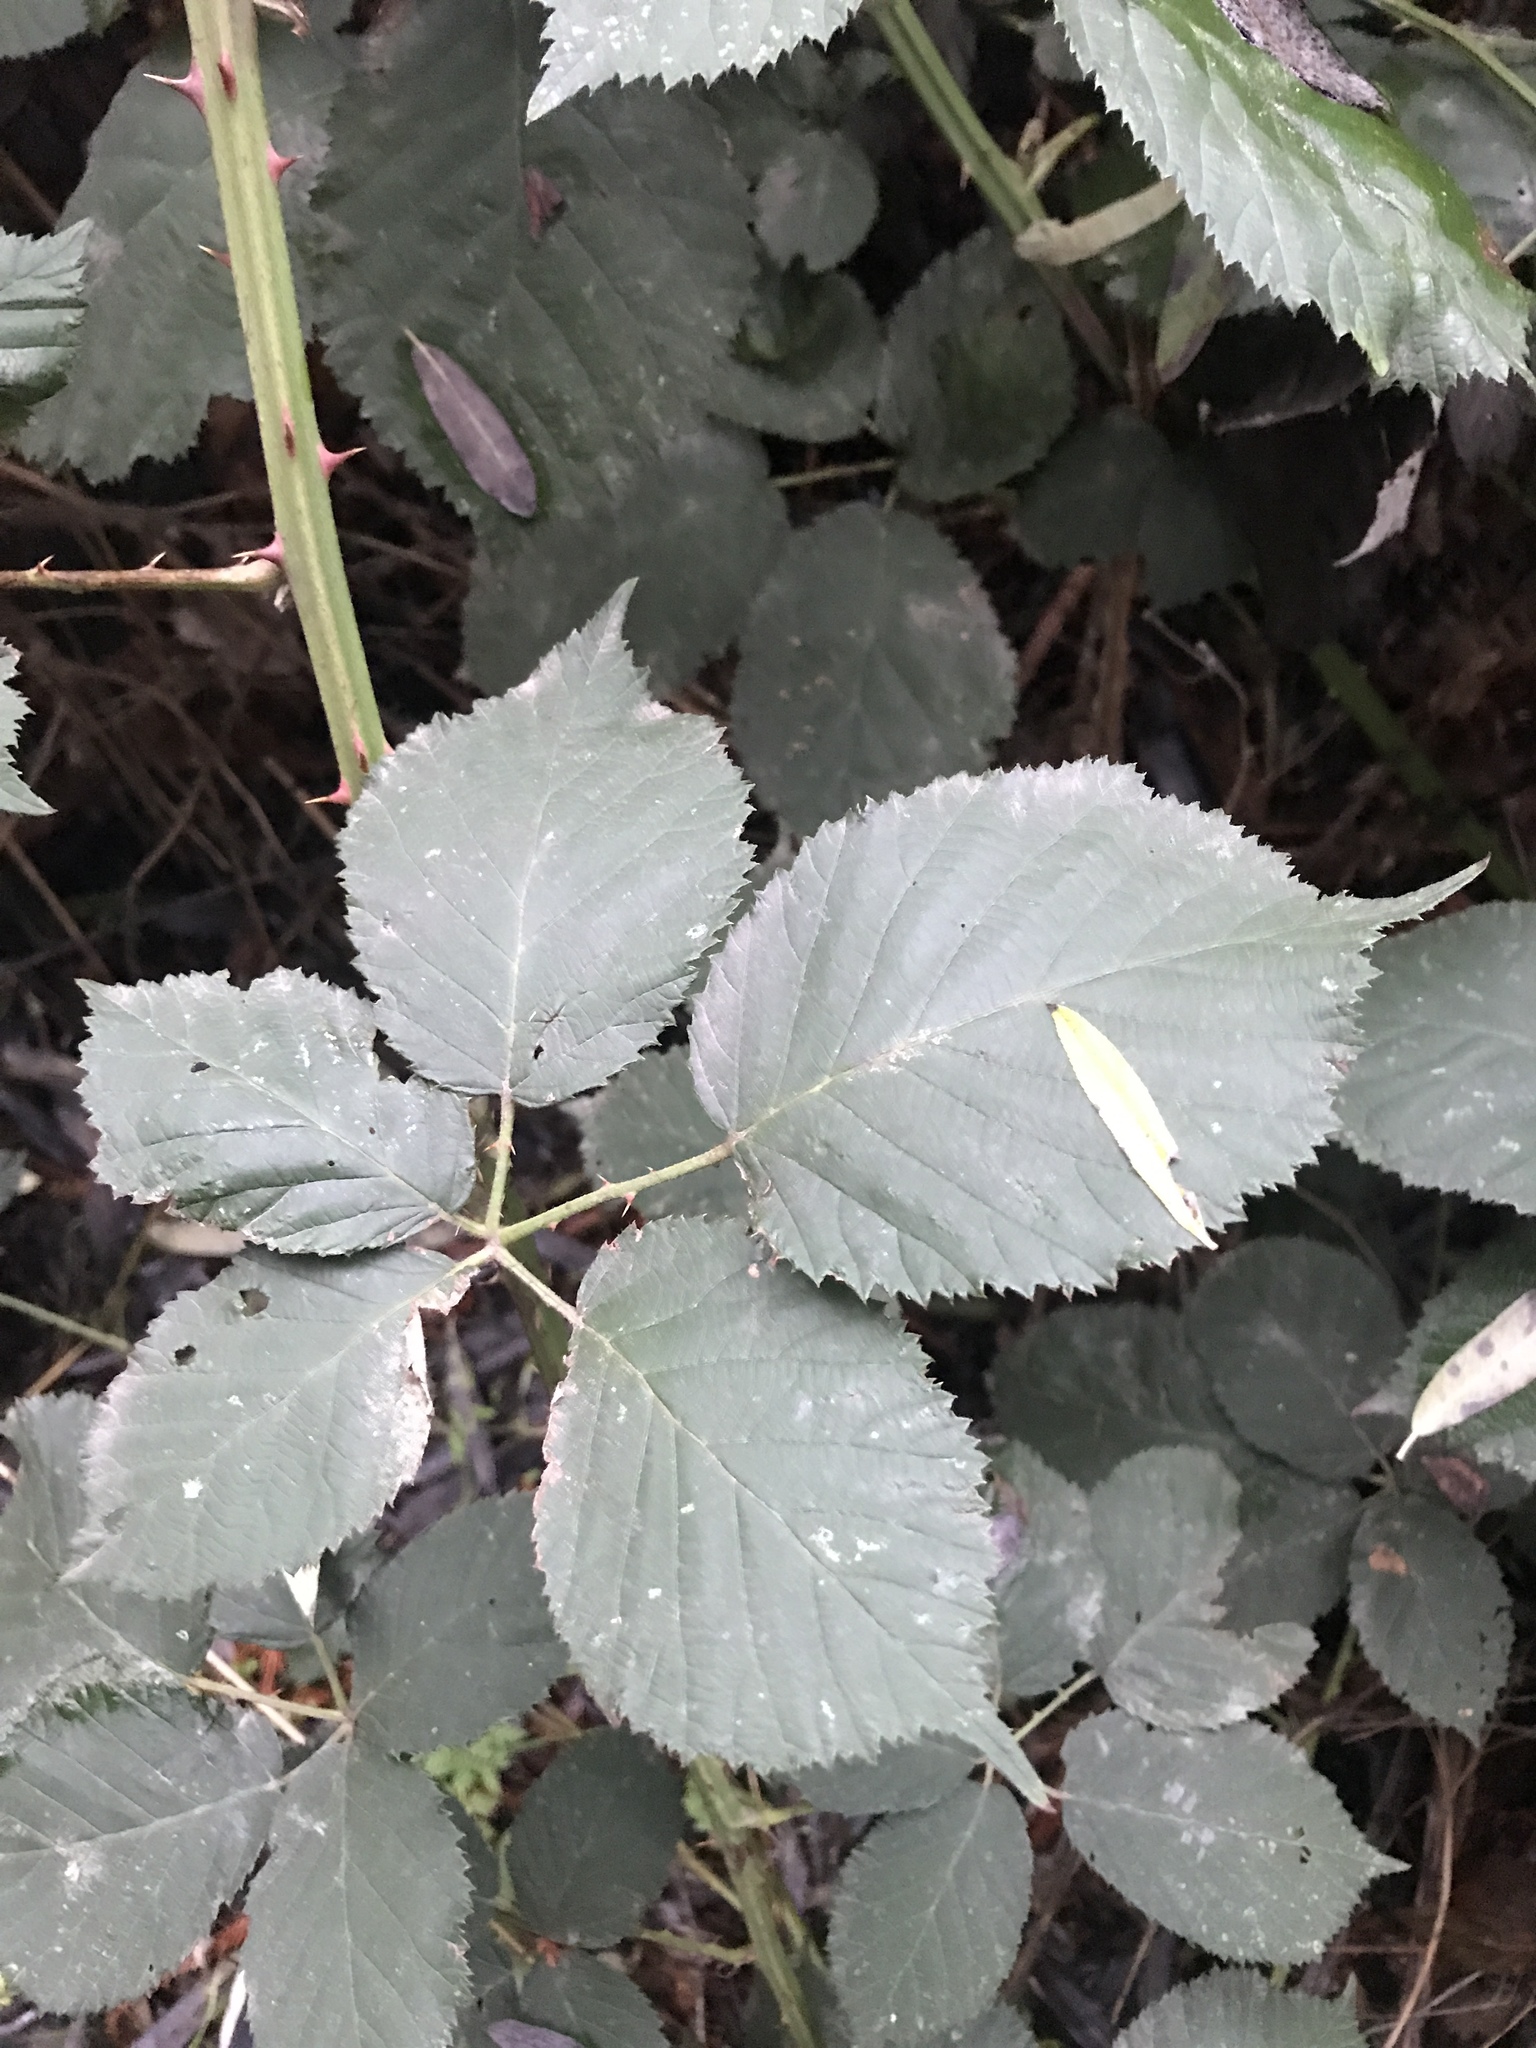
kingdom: Plantae
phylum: Tracheophyta
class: Magnoliopsida
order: Rosales
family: Rosaceae
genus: Rubus
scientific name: Rubus armeniacus
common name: Himalayan blackberry
